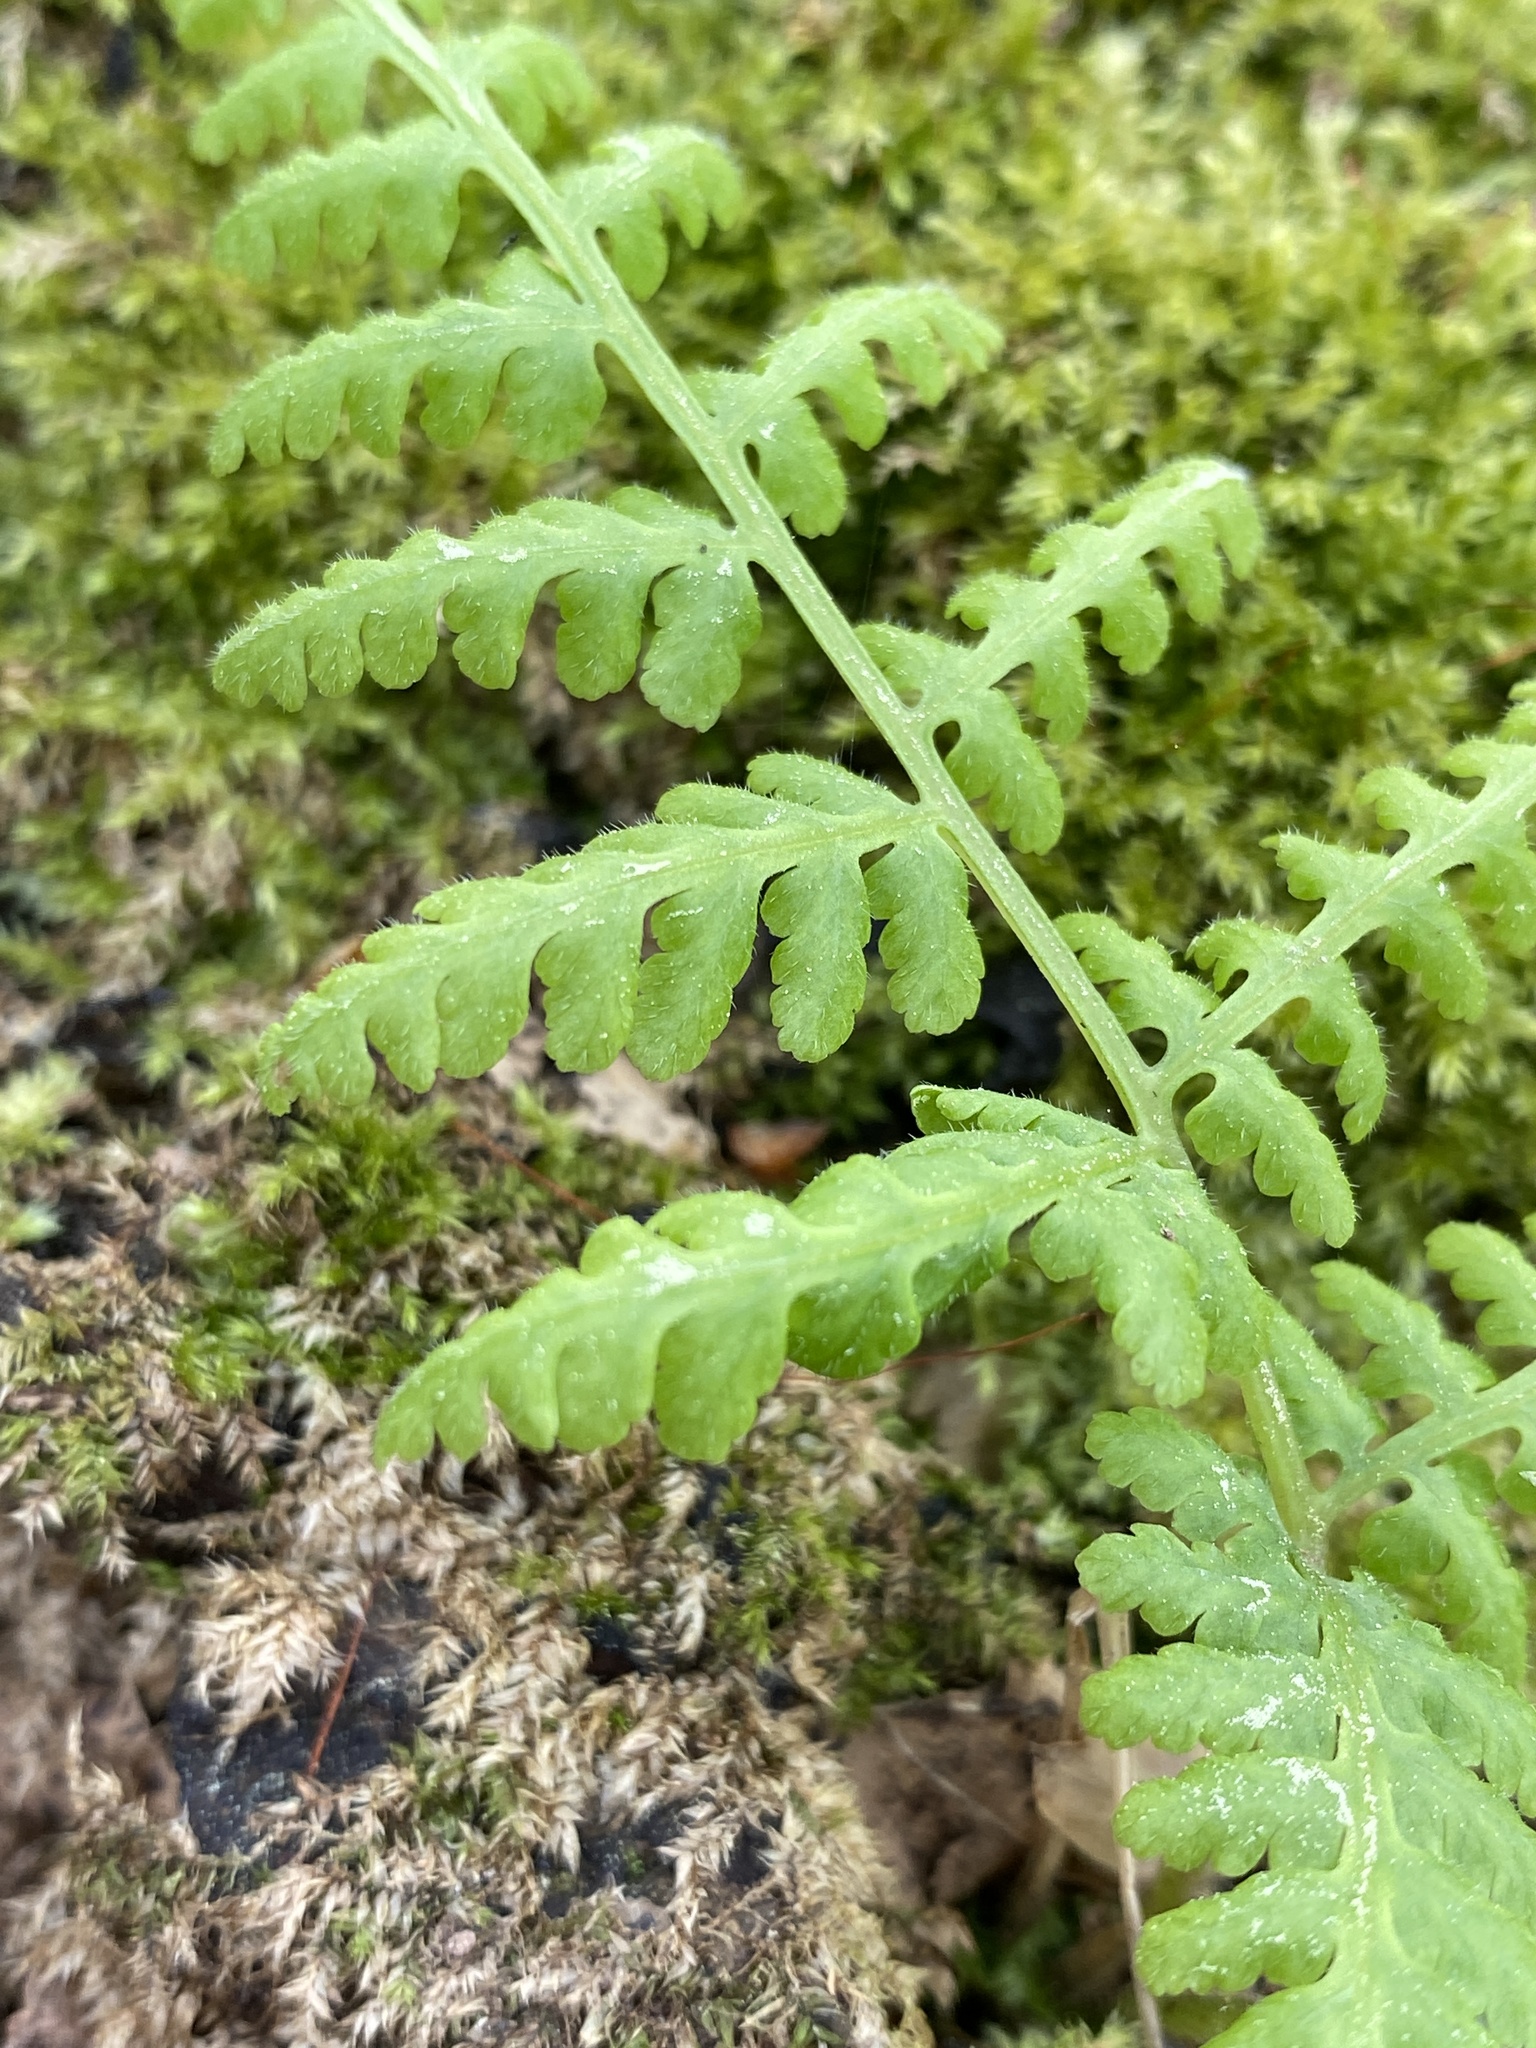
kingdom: Plantae
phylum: Tracheophyta
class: Polypodiopsida
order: Polypodiales
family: Woodsiaceae
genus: Physematium
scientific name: Physematium obtusum
